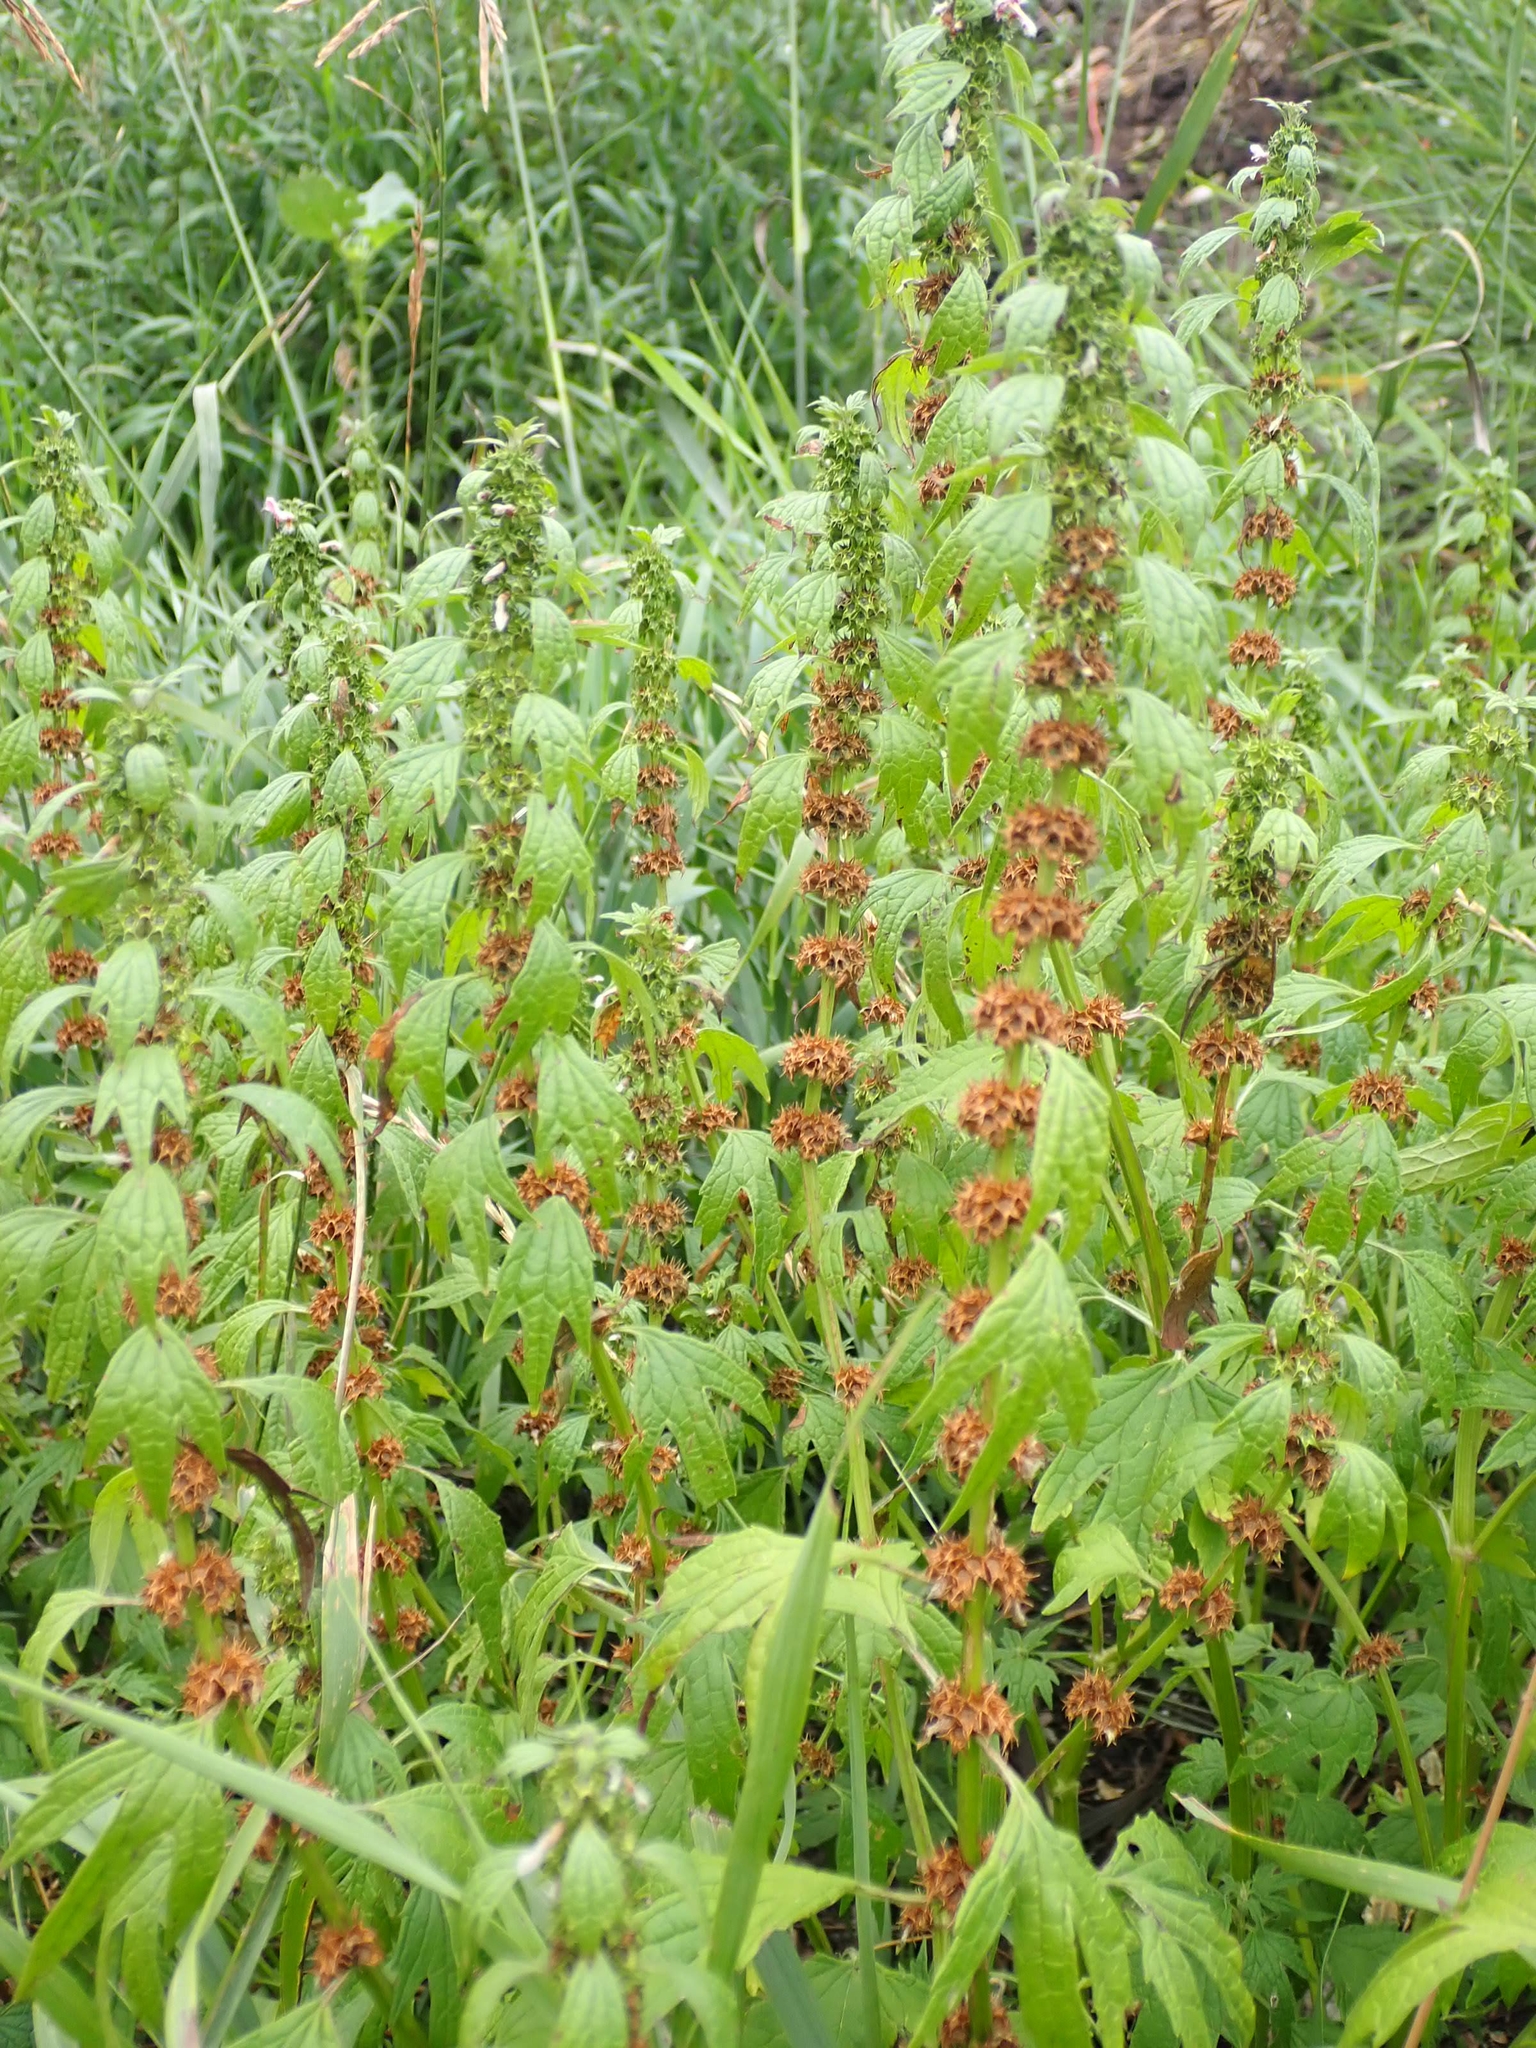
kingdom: Plantae
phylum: Tracheophyta
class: Magnoliopsida
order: Lamiales
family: Lamiaceae
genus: Leonurus
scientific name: Leonurus cardiaca
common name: Motherwort
